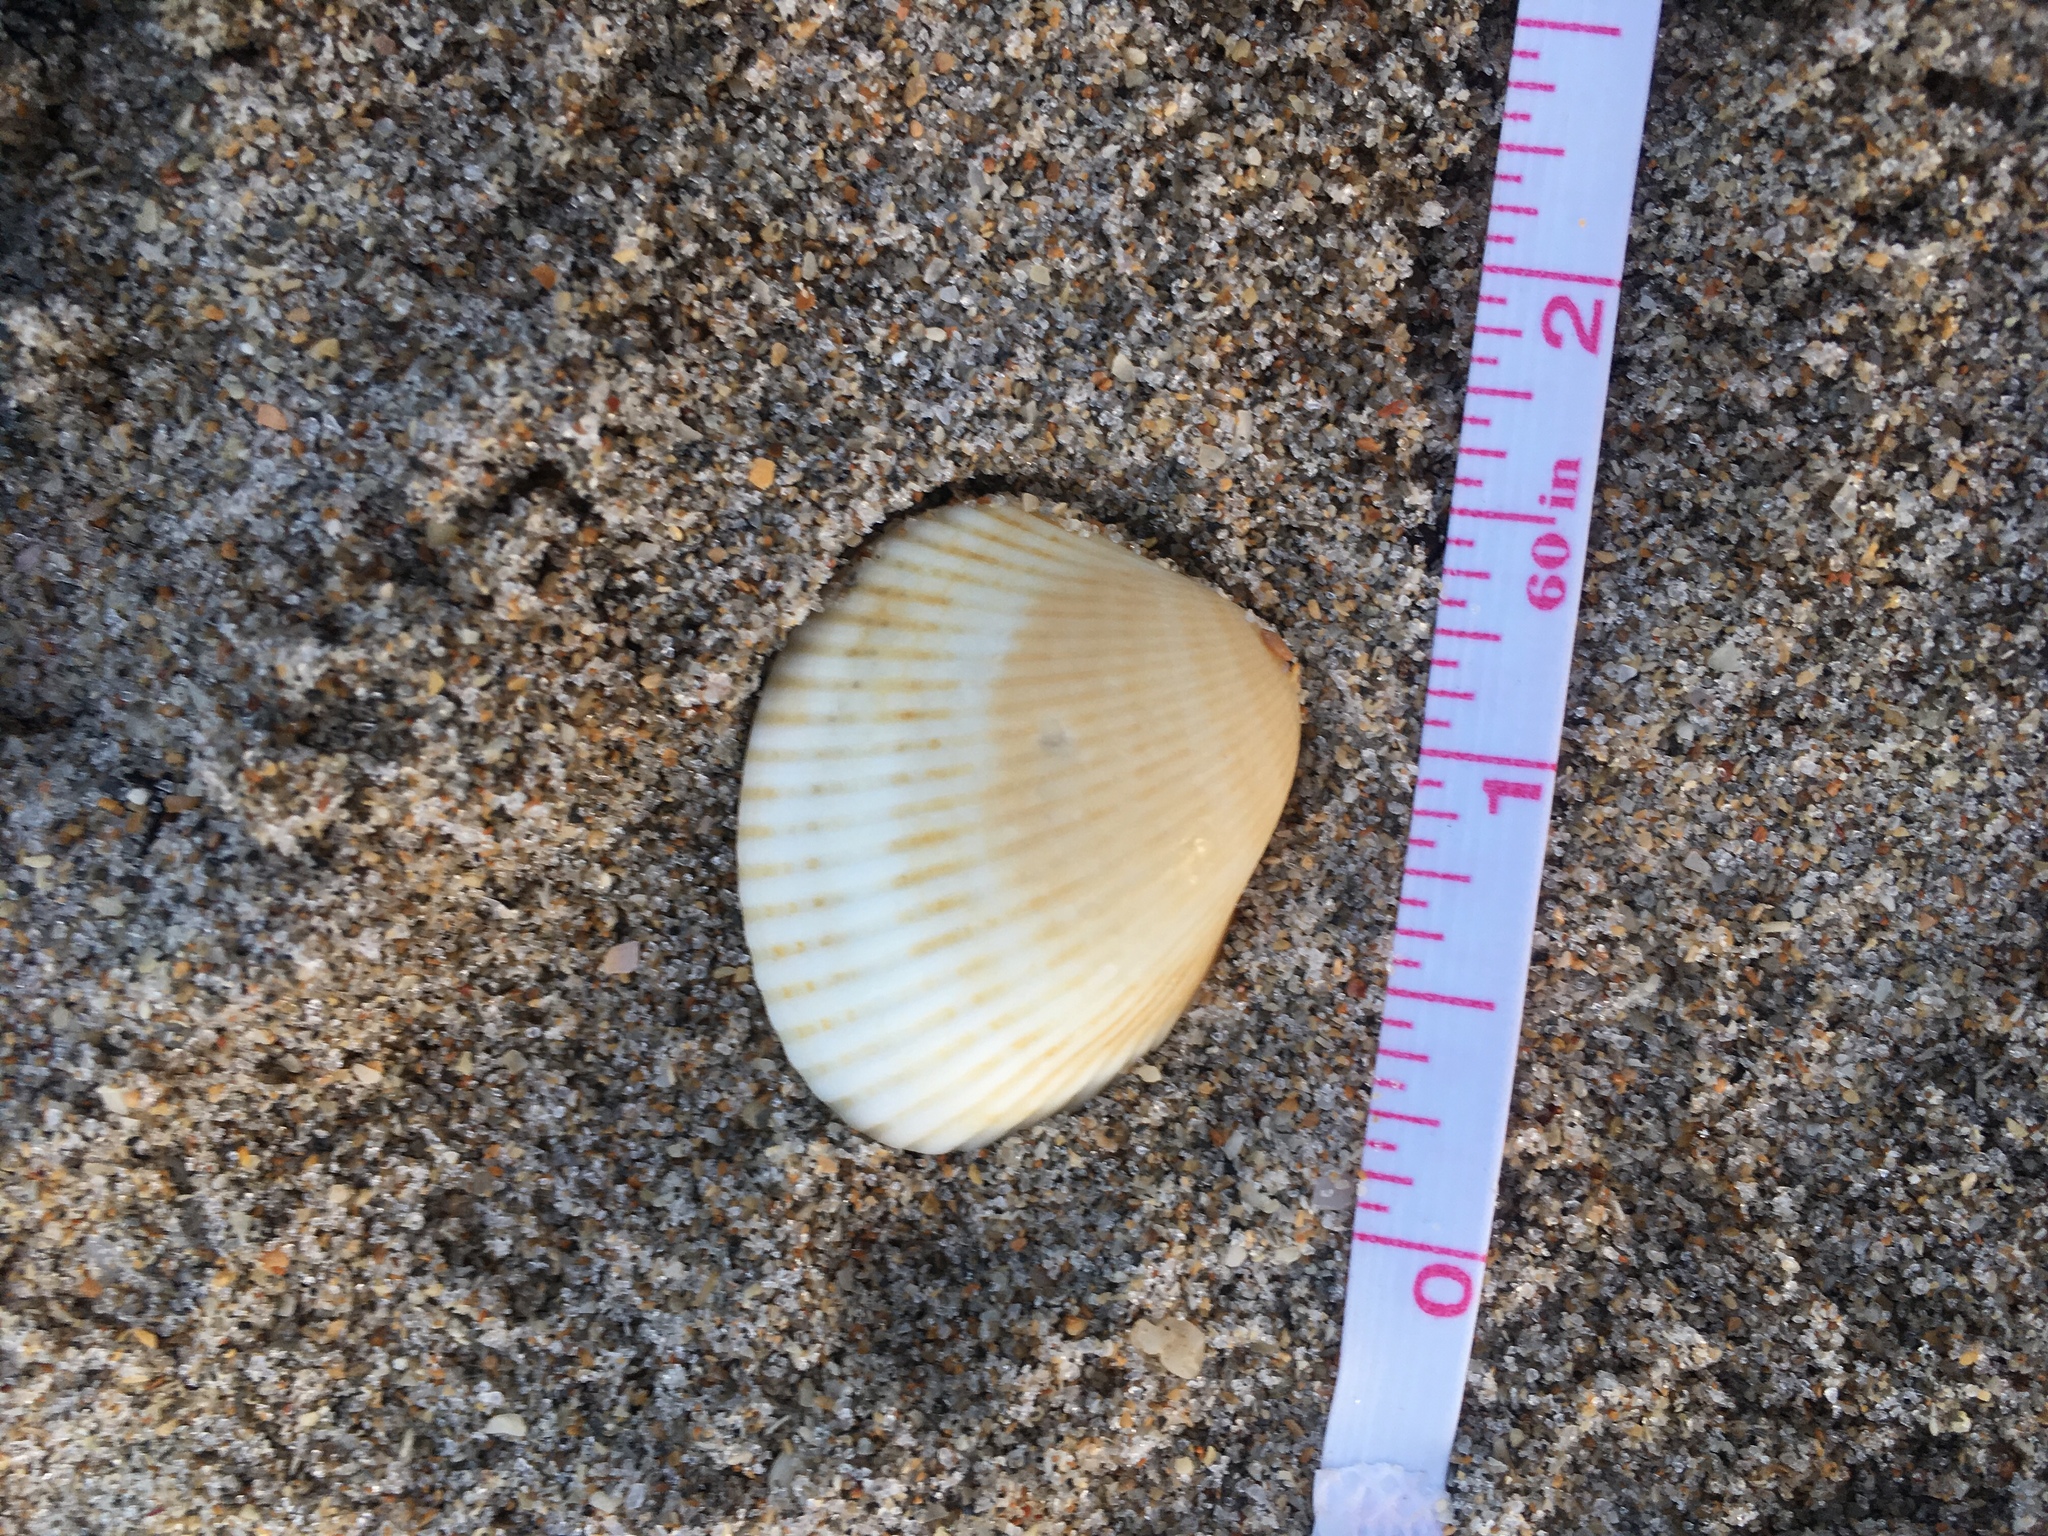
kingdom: Animalia
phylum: Mollusca
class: Bivalvia
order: Arcida
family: Arcidae
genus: Lunarca
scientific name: Lunarca ovalis
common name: Blood ark
